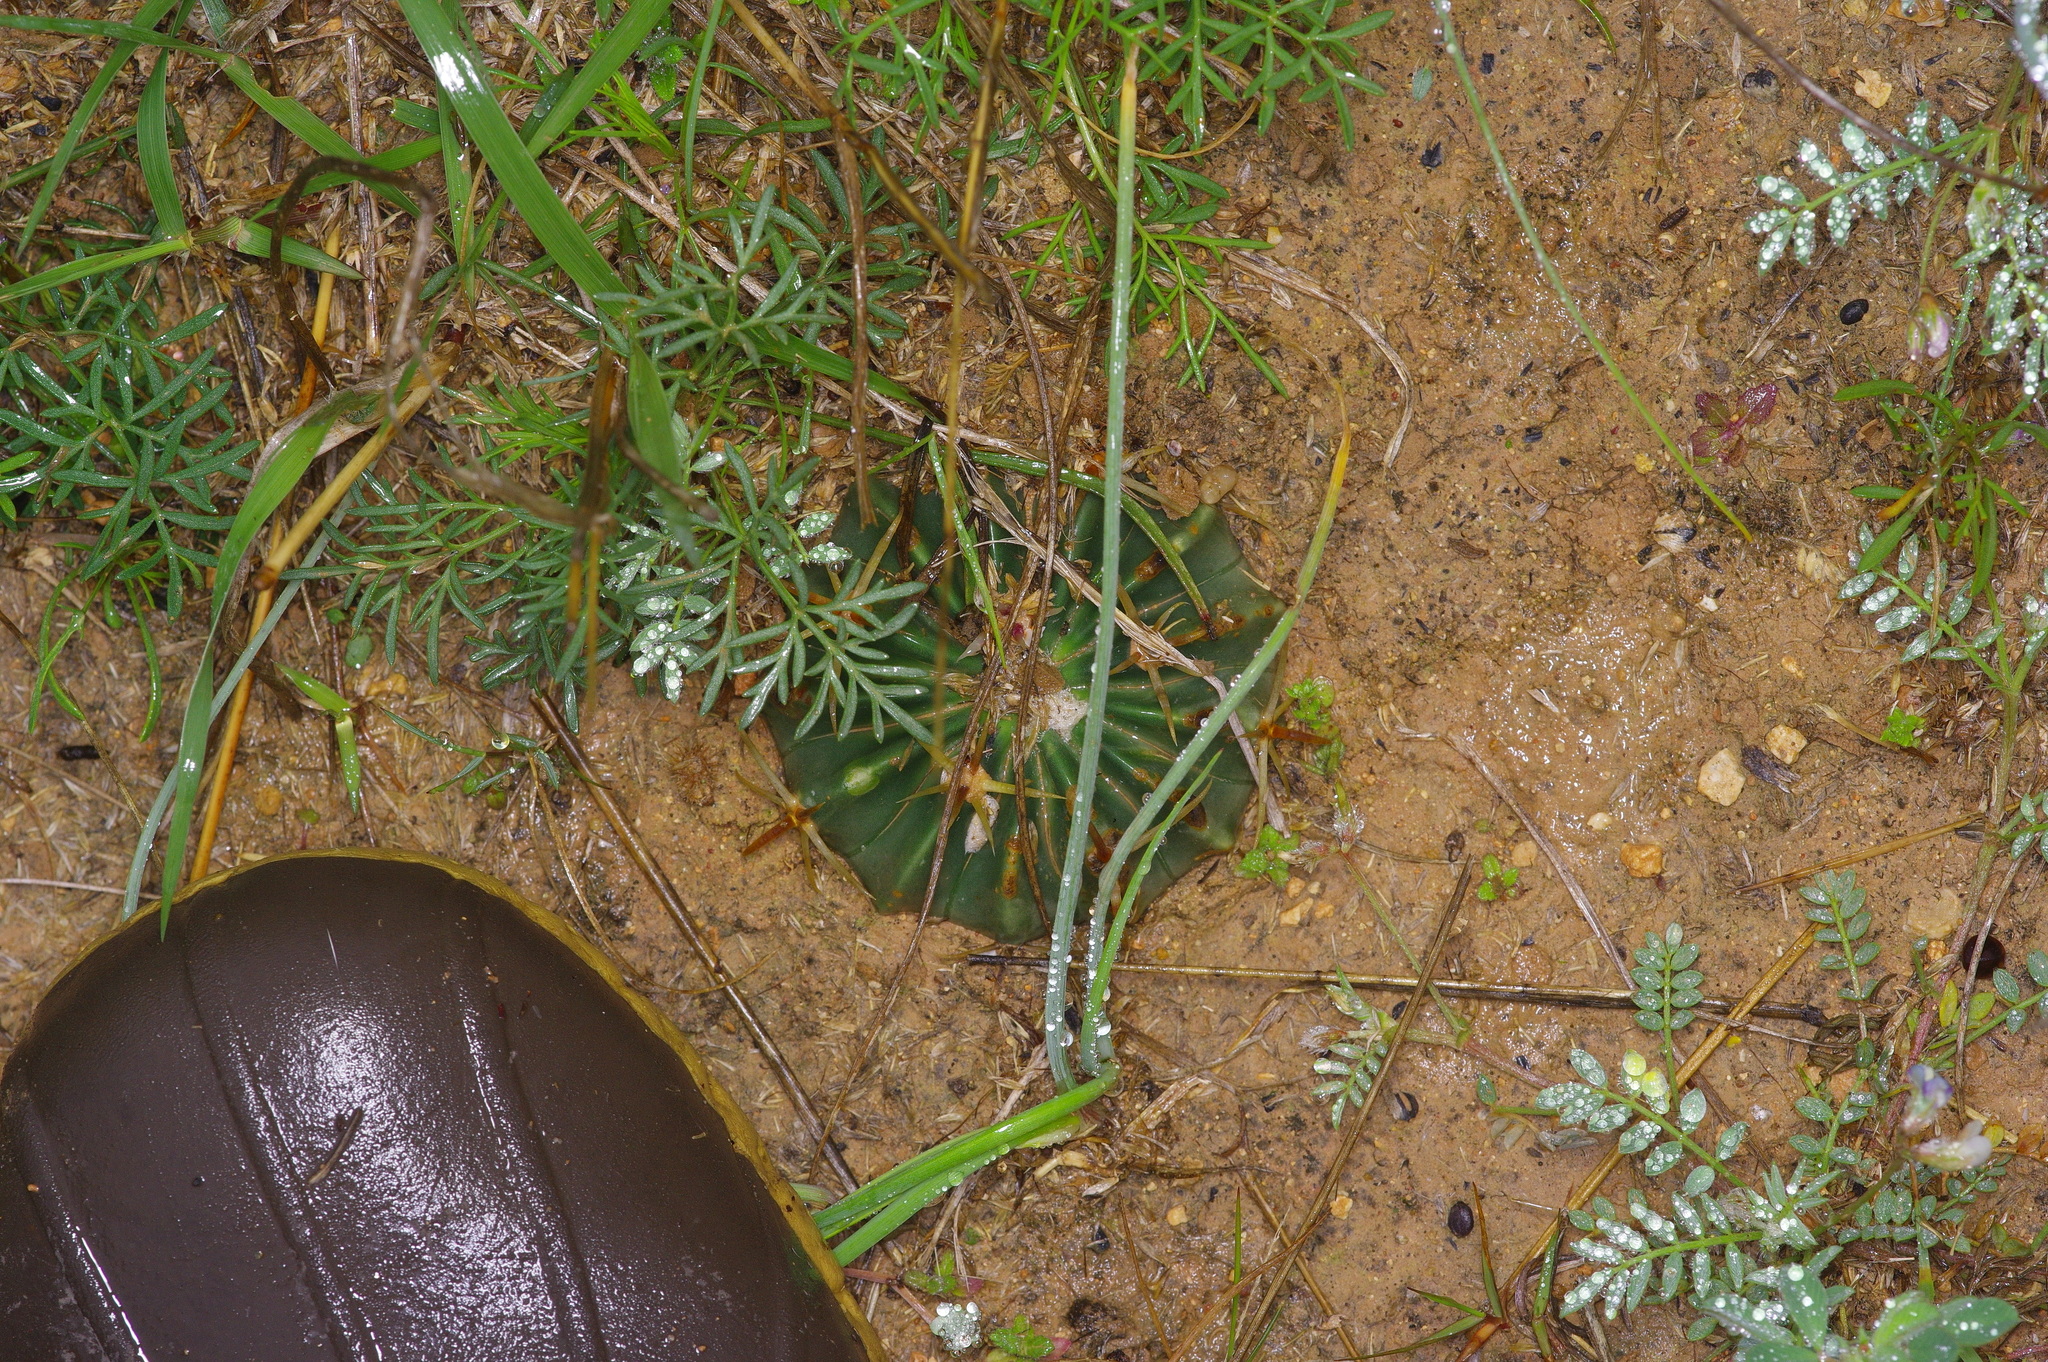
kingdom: Plantae
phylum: Tracheophyta
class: Magnoliopsida
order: Caryophyllales
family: Cactaceae
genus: Echinocactus
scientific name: Echinocactus texensis
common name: Devil's pincushion
